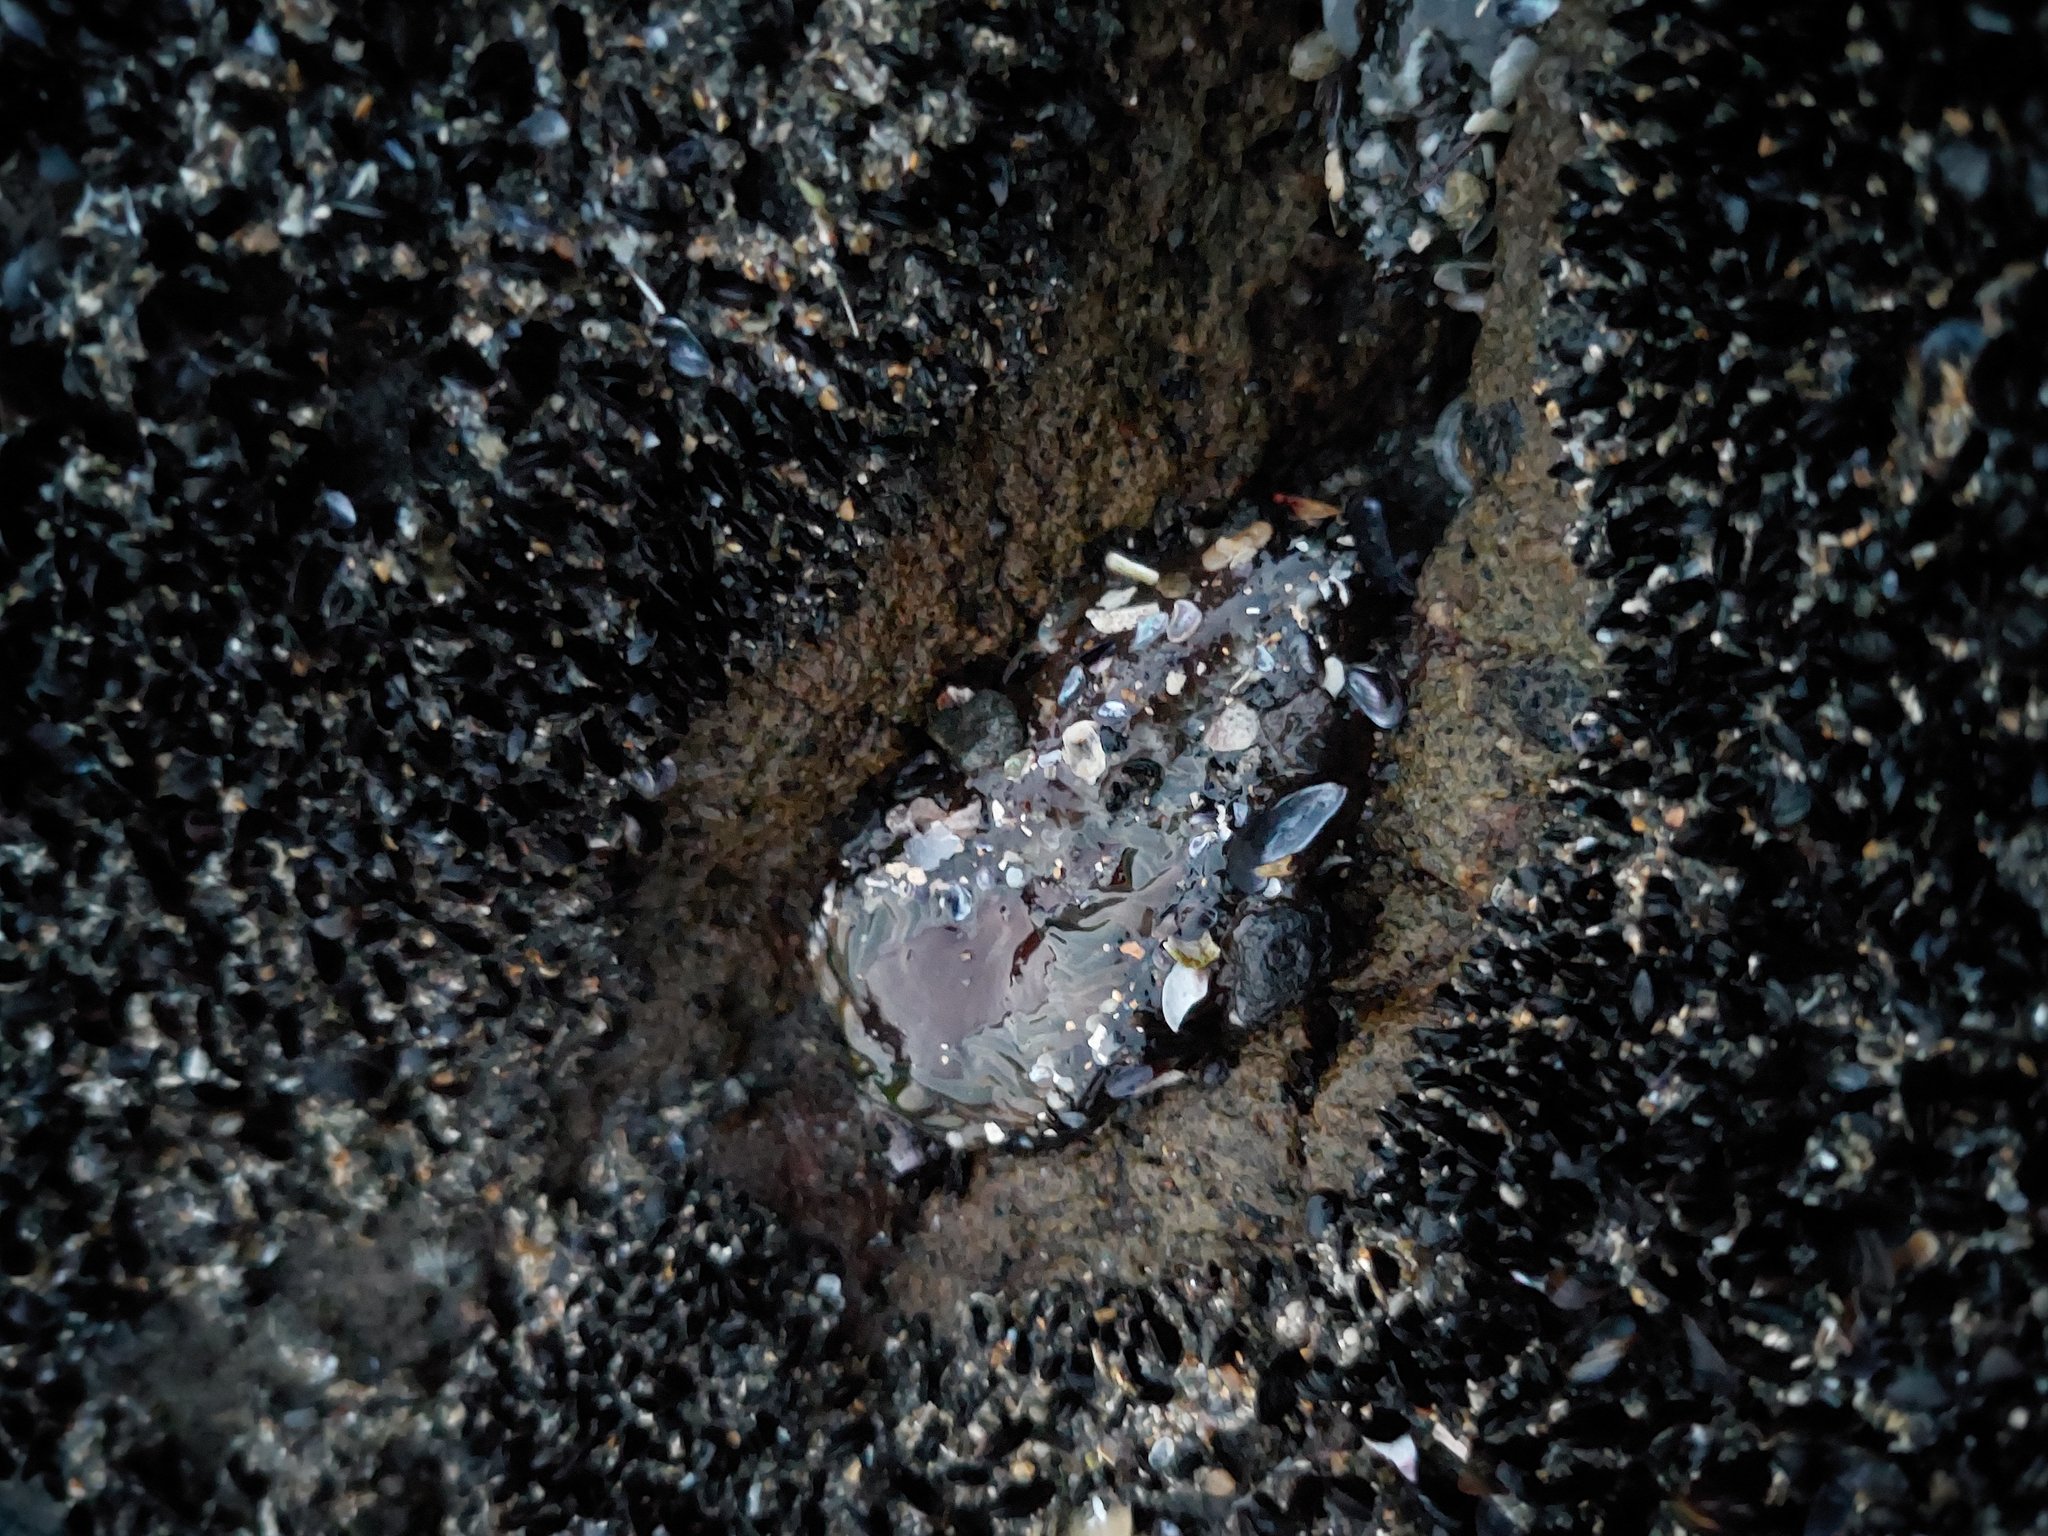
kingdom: Animalia
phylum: Mollusca
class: Bivalvia
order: Mytilida
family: Mytilidae
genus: Xenostrobus
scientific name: Xenostrobus neozelanicus
